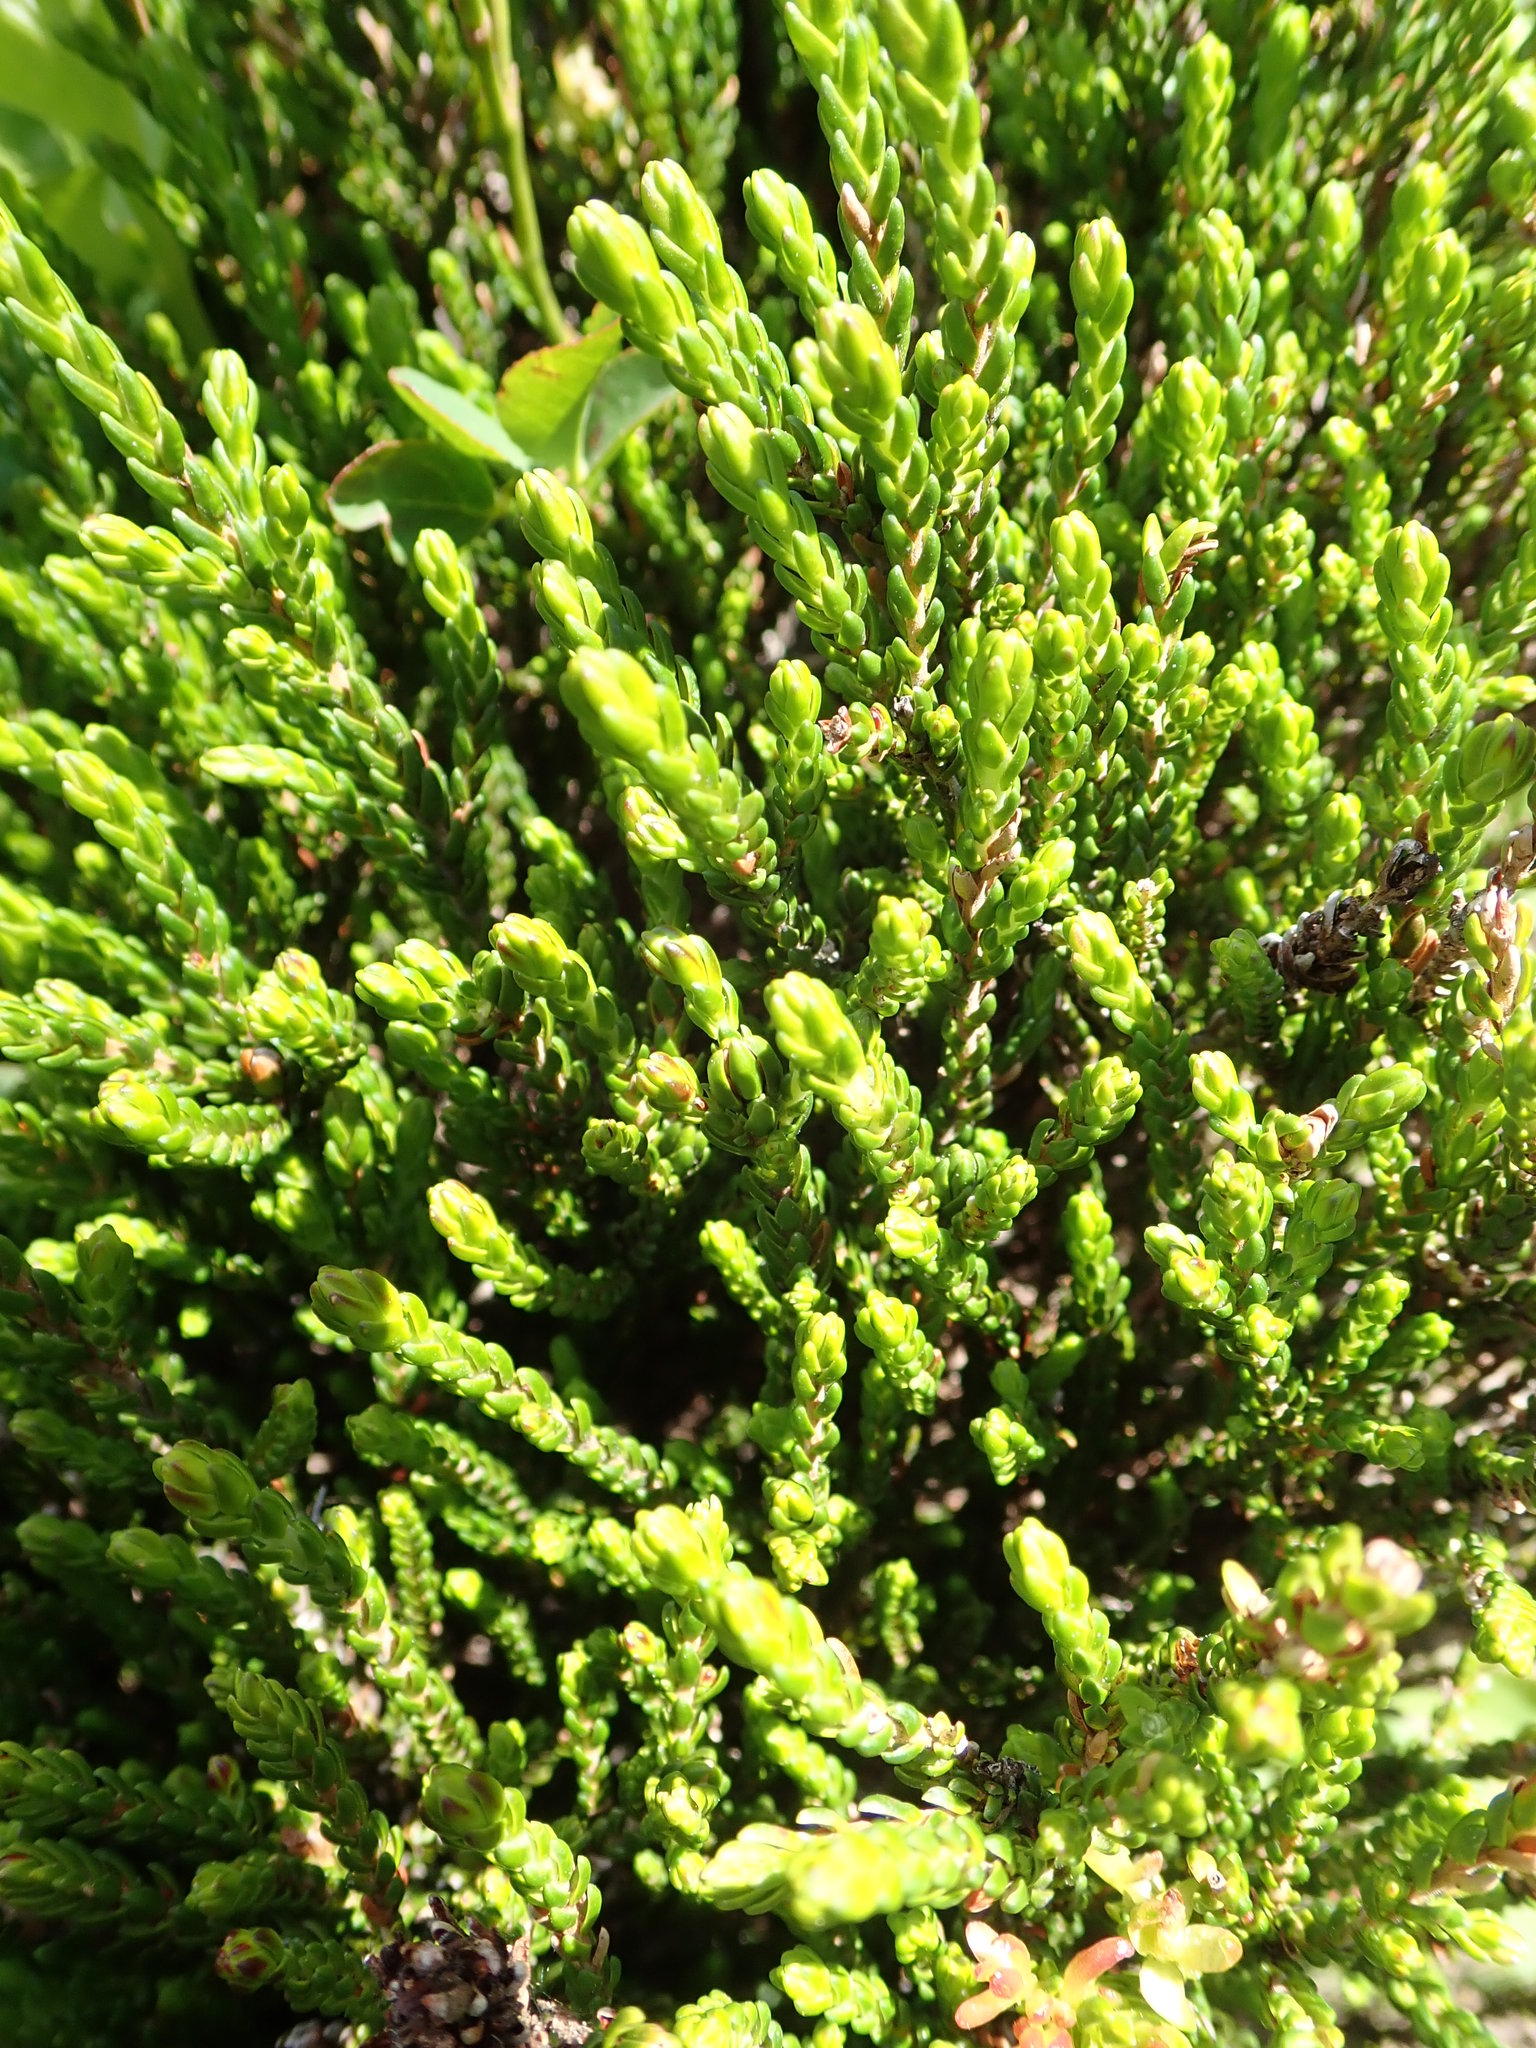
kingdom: Plantae
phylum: Tracheophyta
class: Magnoliopsida
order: Ericales
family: Ericaceae
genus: Cassiope
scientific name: Cassiope mertensiana
